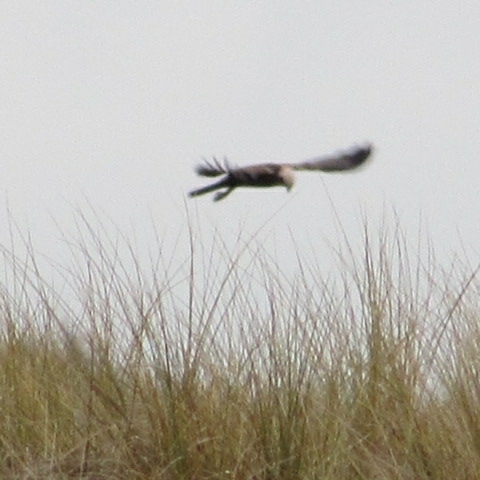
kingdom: Animalia
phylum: Chordata
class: Aves
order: Accipitriformes
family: Accipitridae
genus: Circus
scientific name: Circus aeruginosus
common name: Western marsh harrier
